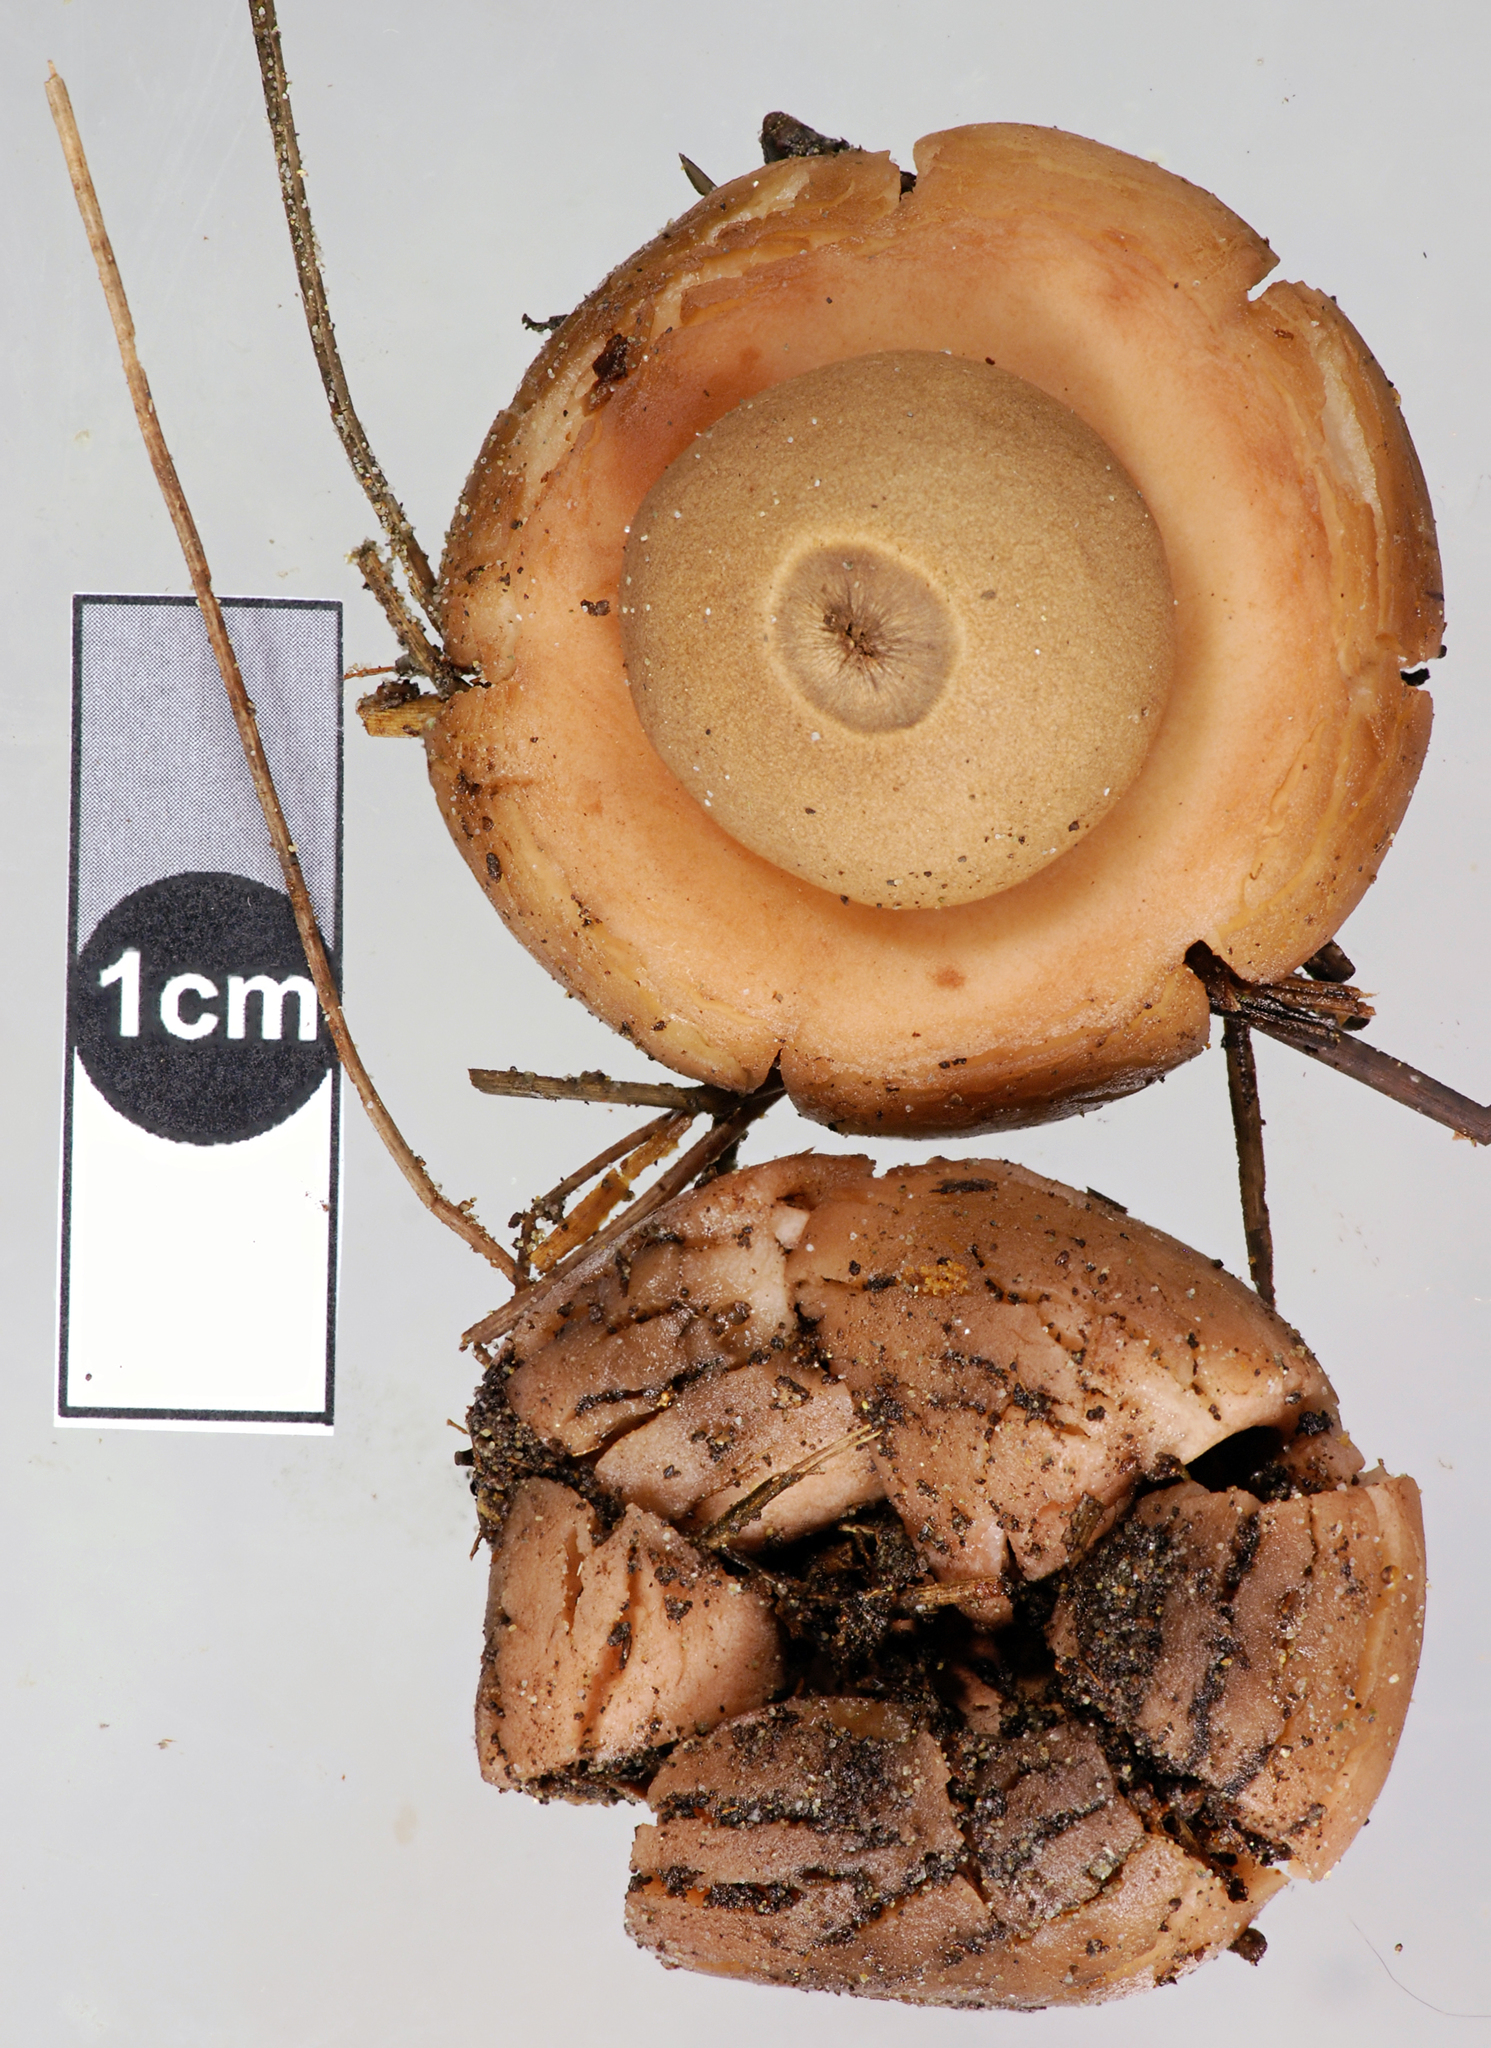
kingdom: Fungi
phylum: Basidiomycota
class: Agaricomycetes
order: Geastrales
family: Geastraceae
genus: Geastrum
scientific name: Geastrum velutinum
